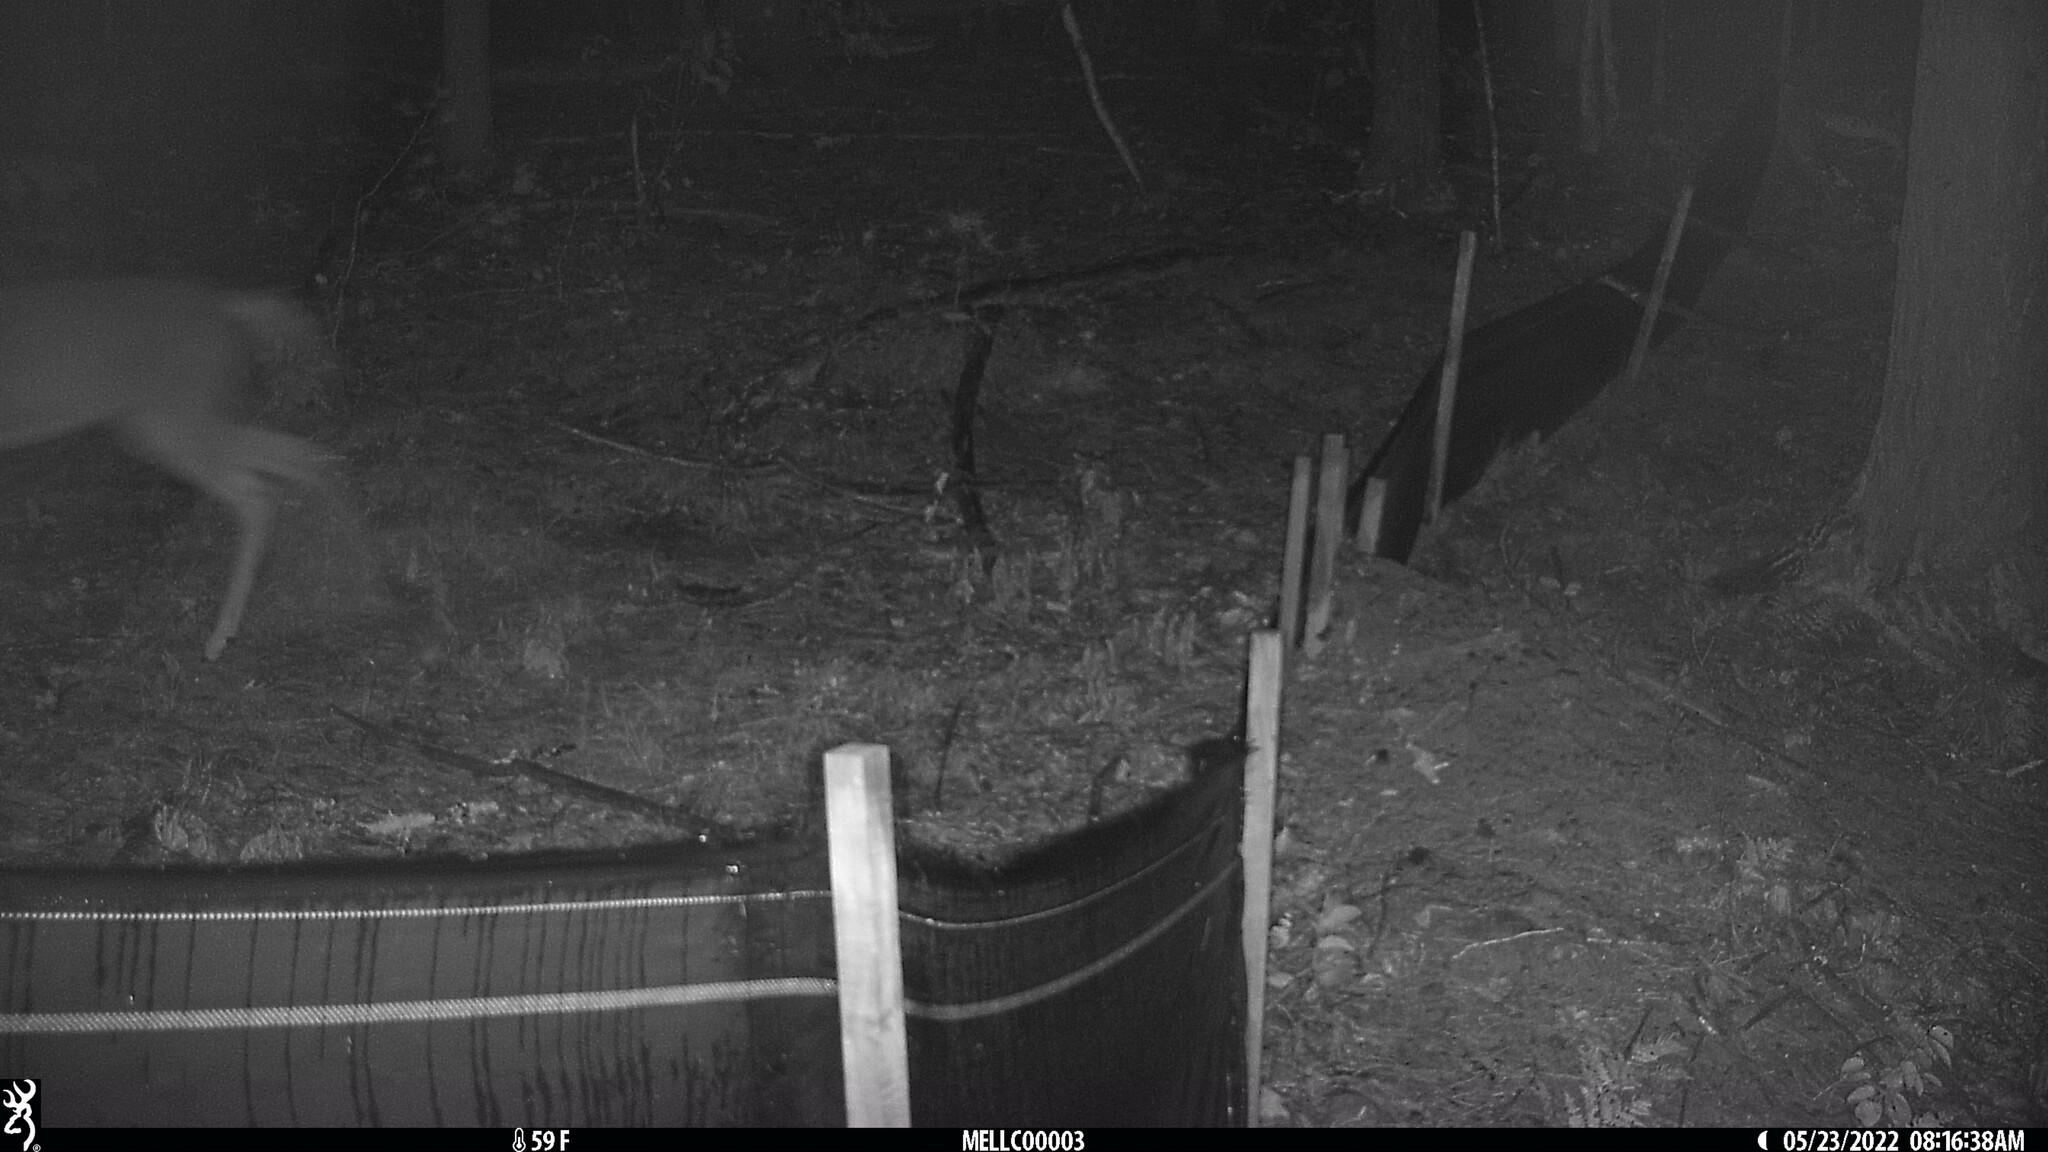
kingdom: Animalia
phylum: Chordata
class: Mammalia
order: Artiodactyla
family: Cervidae
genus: Odocoileus
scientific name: Odocoileus virginianus
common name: White-tailed deer
